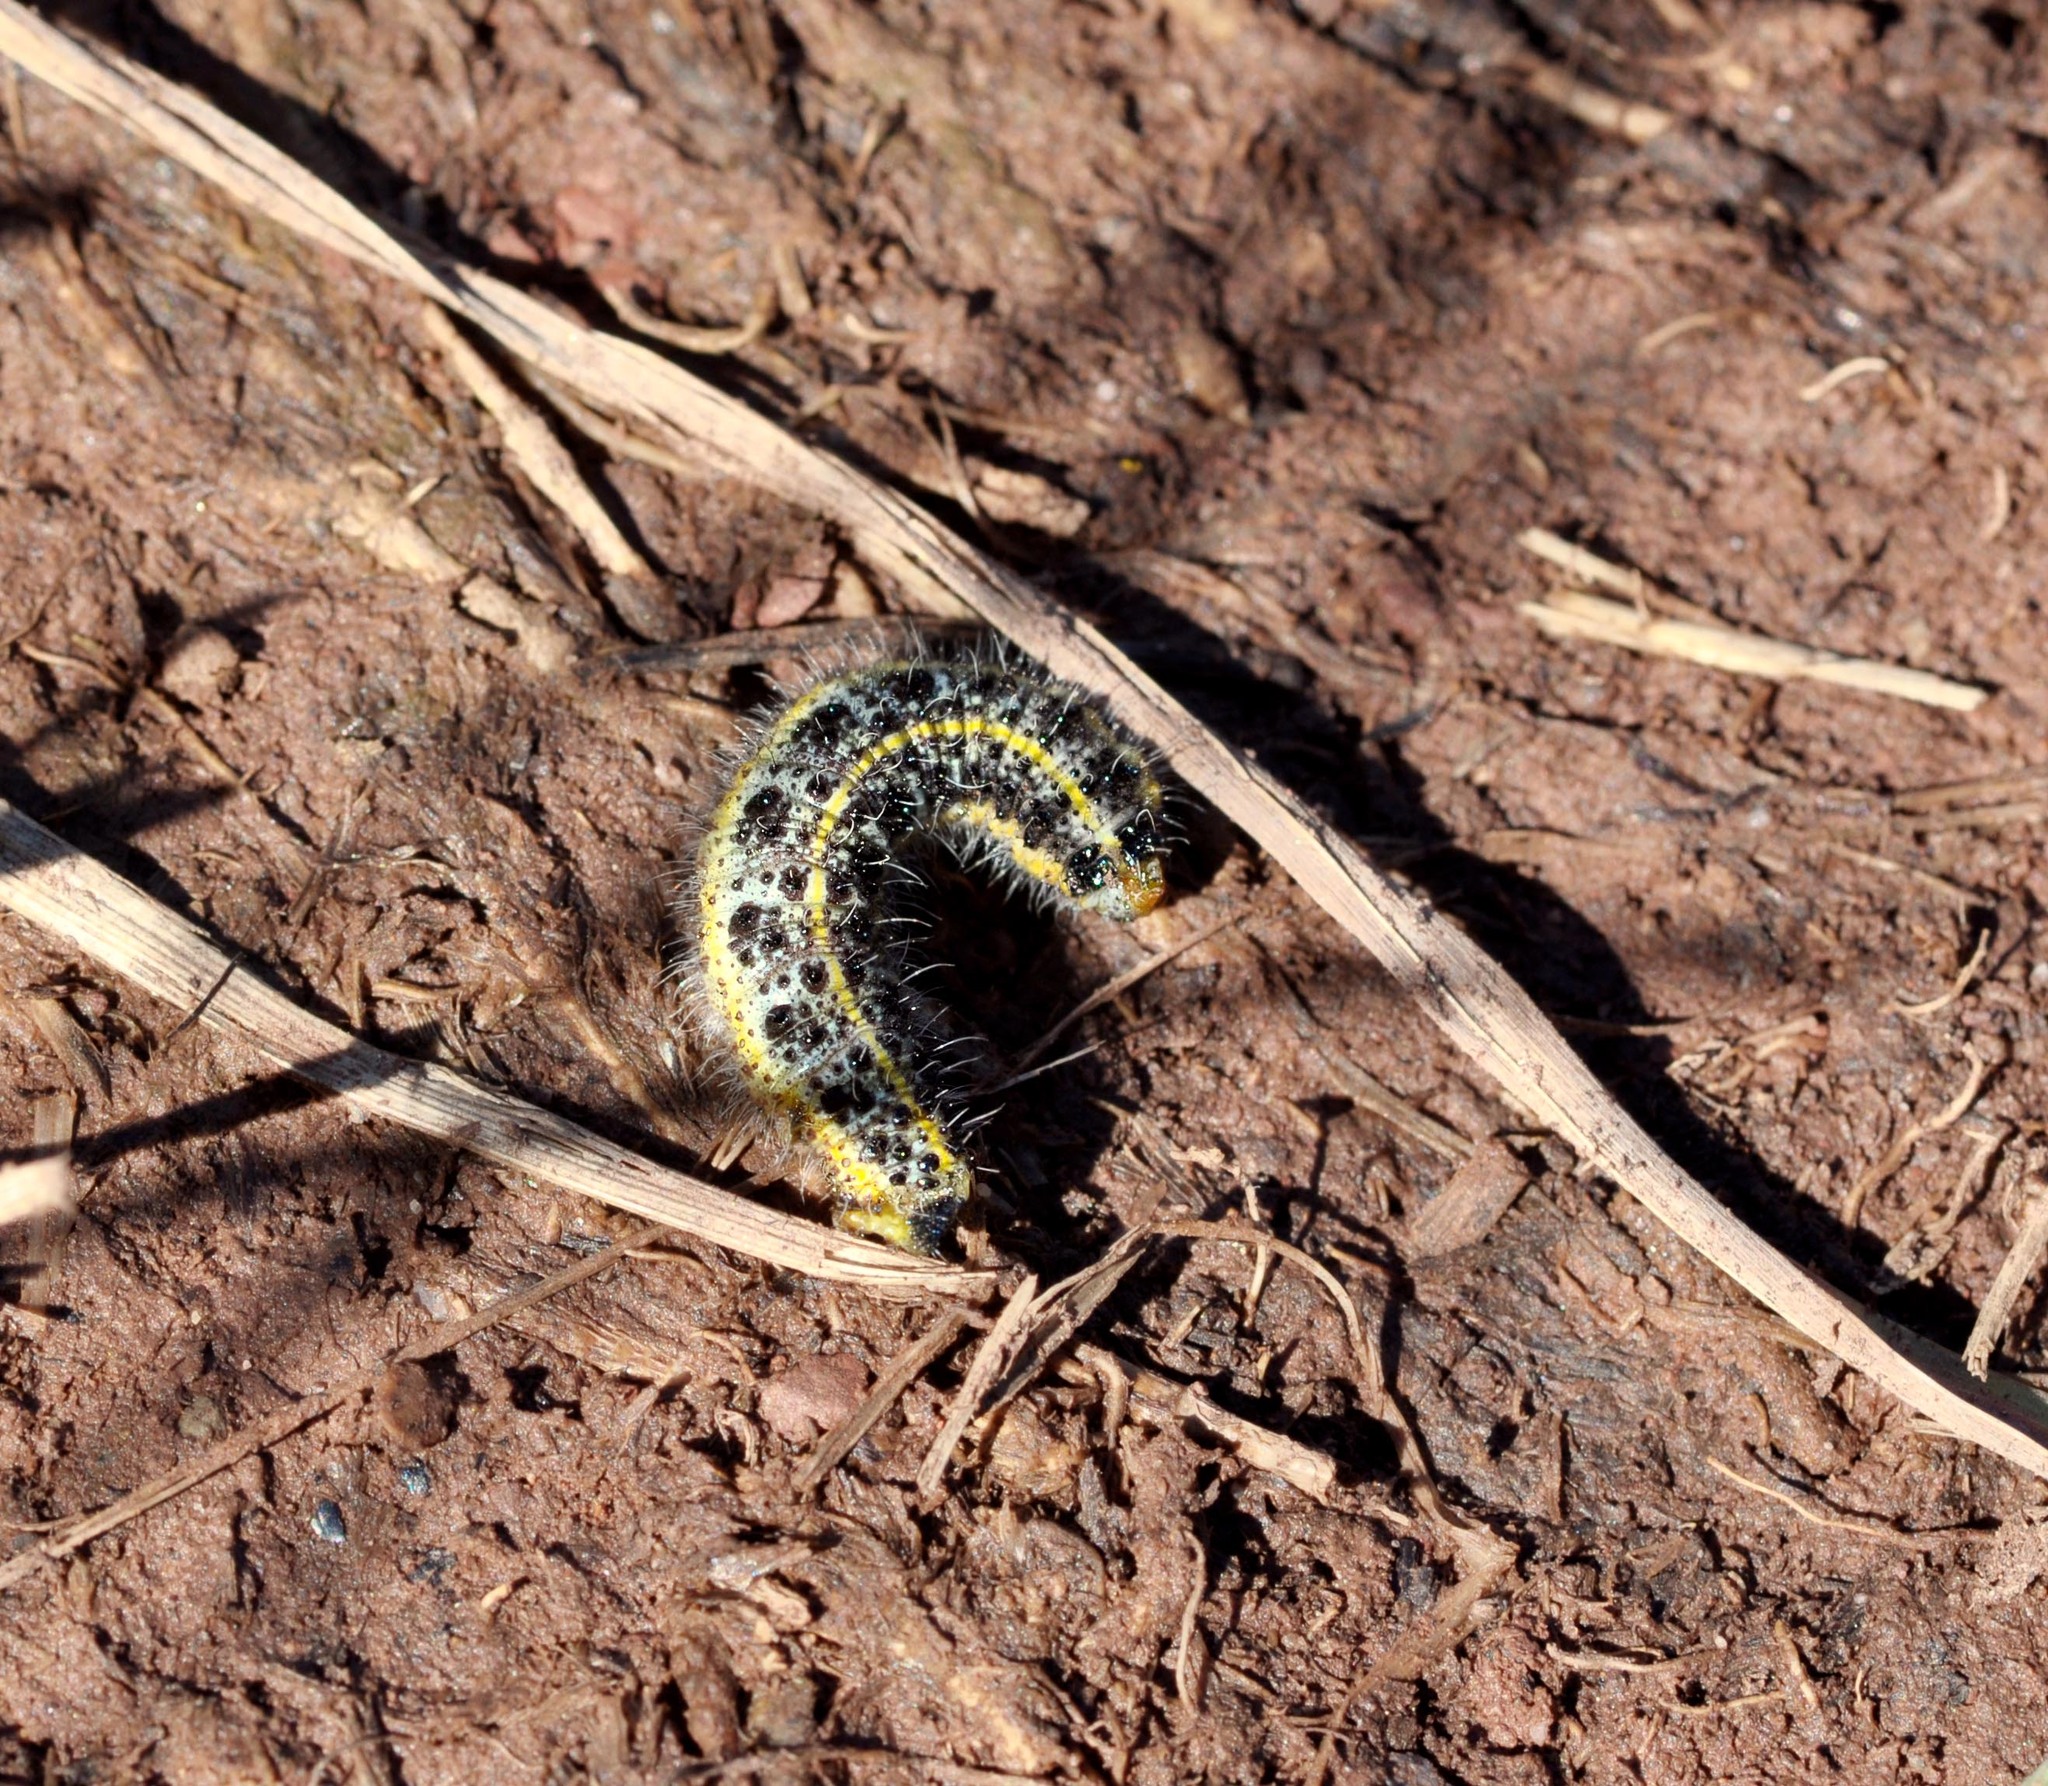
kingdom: Animalia
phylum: Arthropoda
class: Insecta
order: Lepidoptera
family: Pieridae
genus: Pieris
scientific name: Pieris brassicae
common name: Large white
